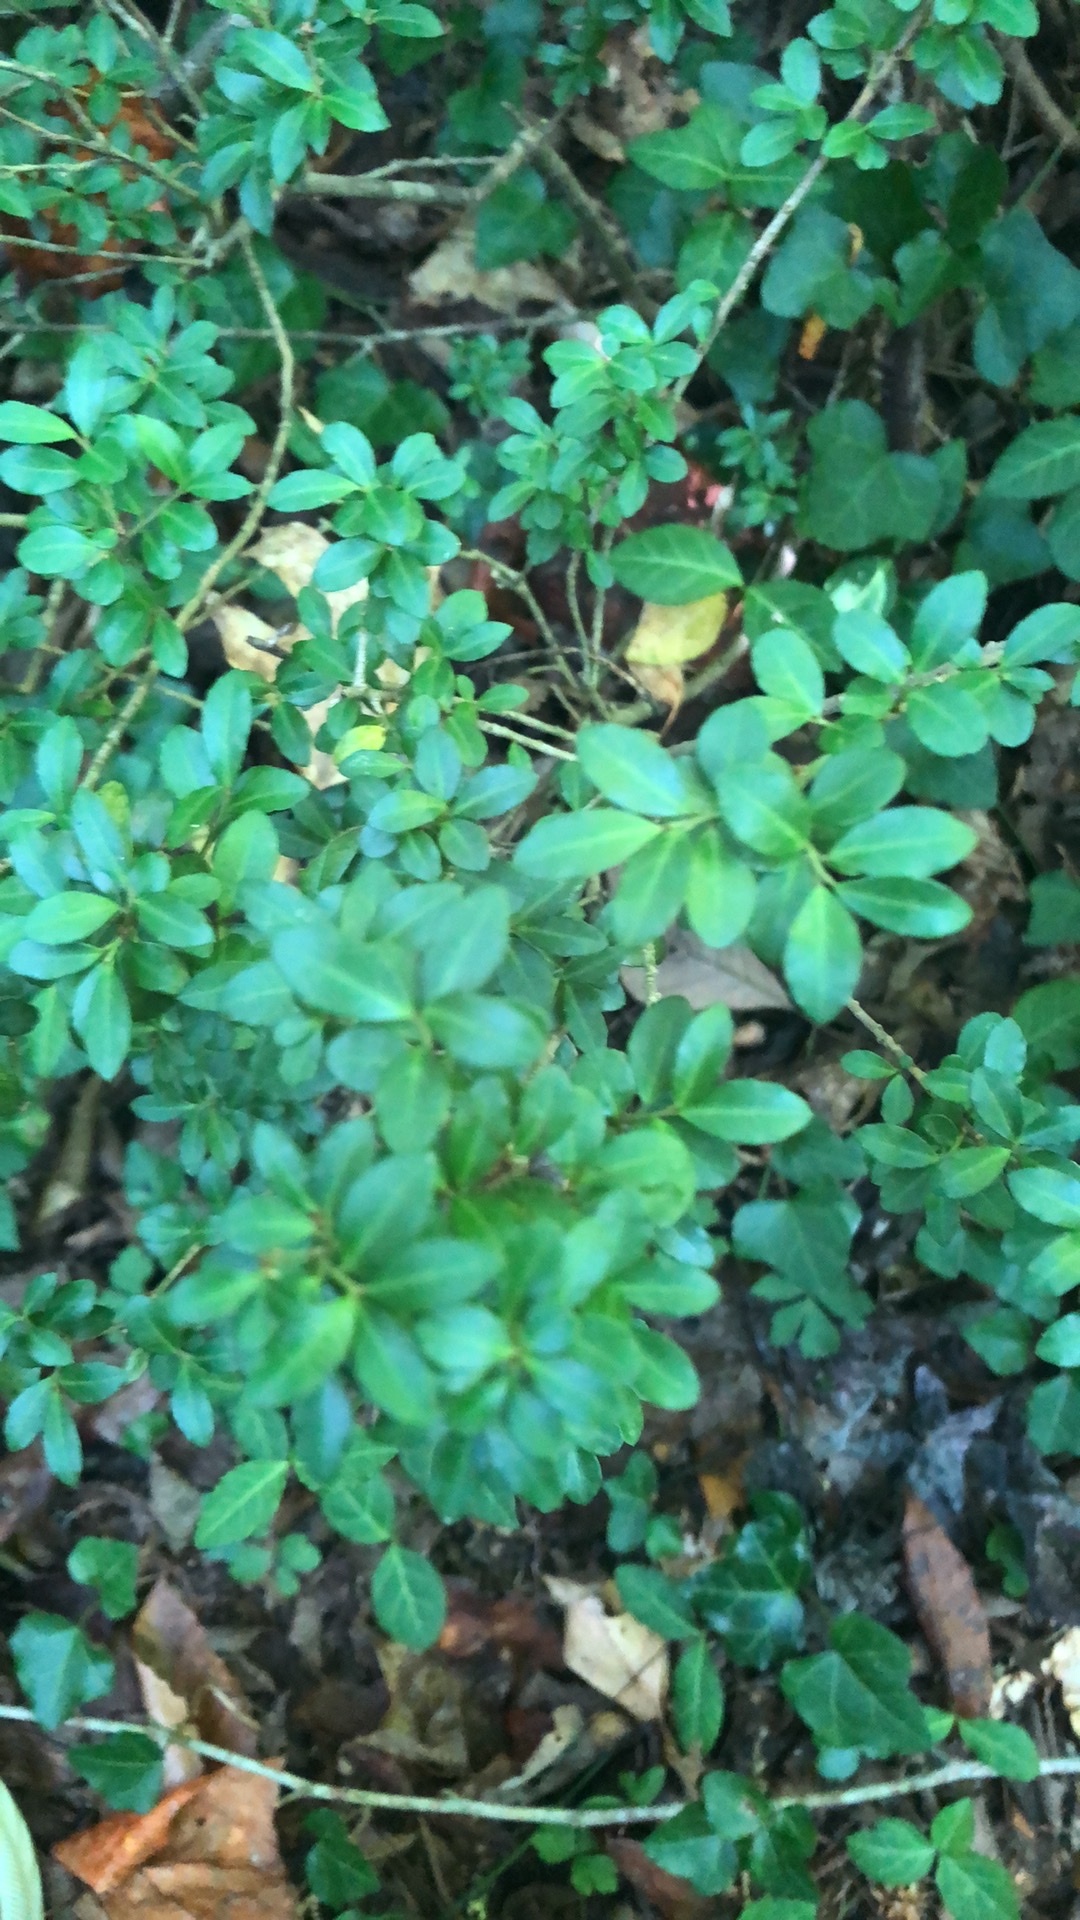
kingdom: Plantae
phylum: Tracheophyta
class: Magnoliopsida
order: Aquifoliales
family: Aquifoliaceae
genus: Ilex
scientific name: Ilex crenata
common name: Japanese holly
